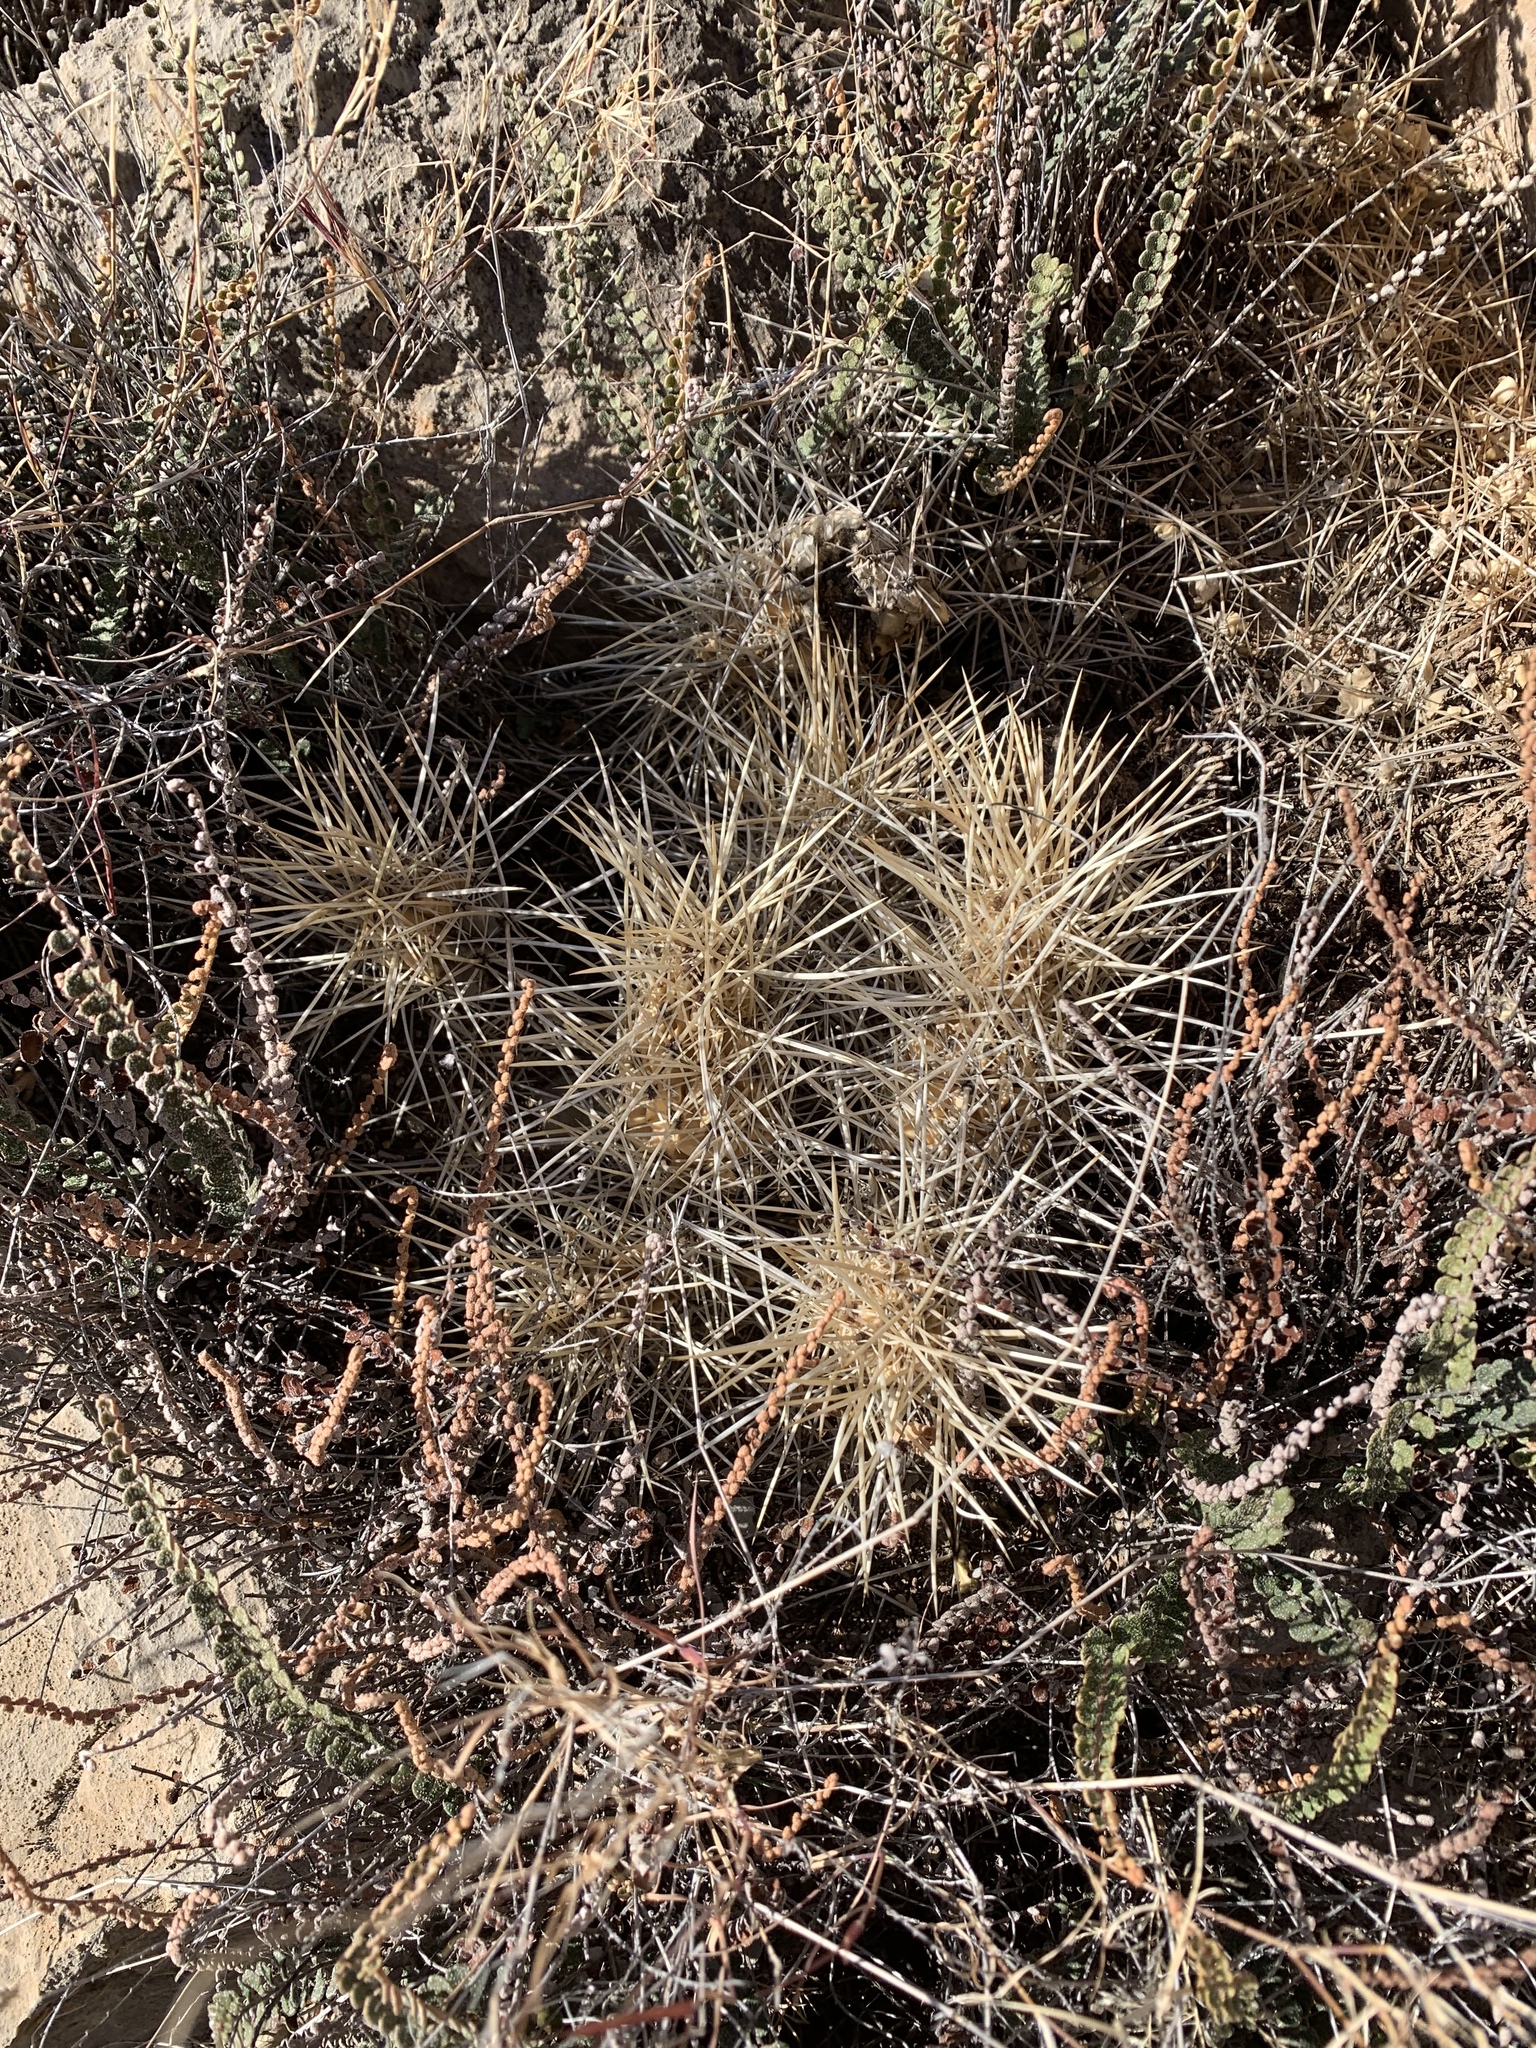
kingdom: Plantae
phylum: Tracheophyta
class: Magnoliopsida
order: Caryophyllales
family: Cactaceae
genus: Echinocereus
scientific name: Echinocereus stramineus
